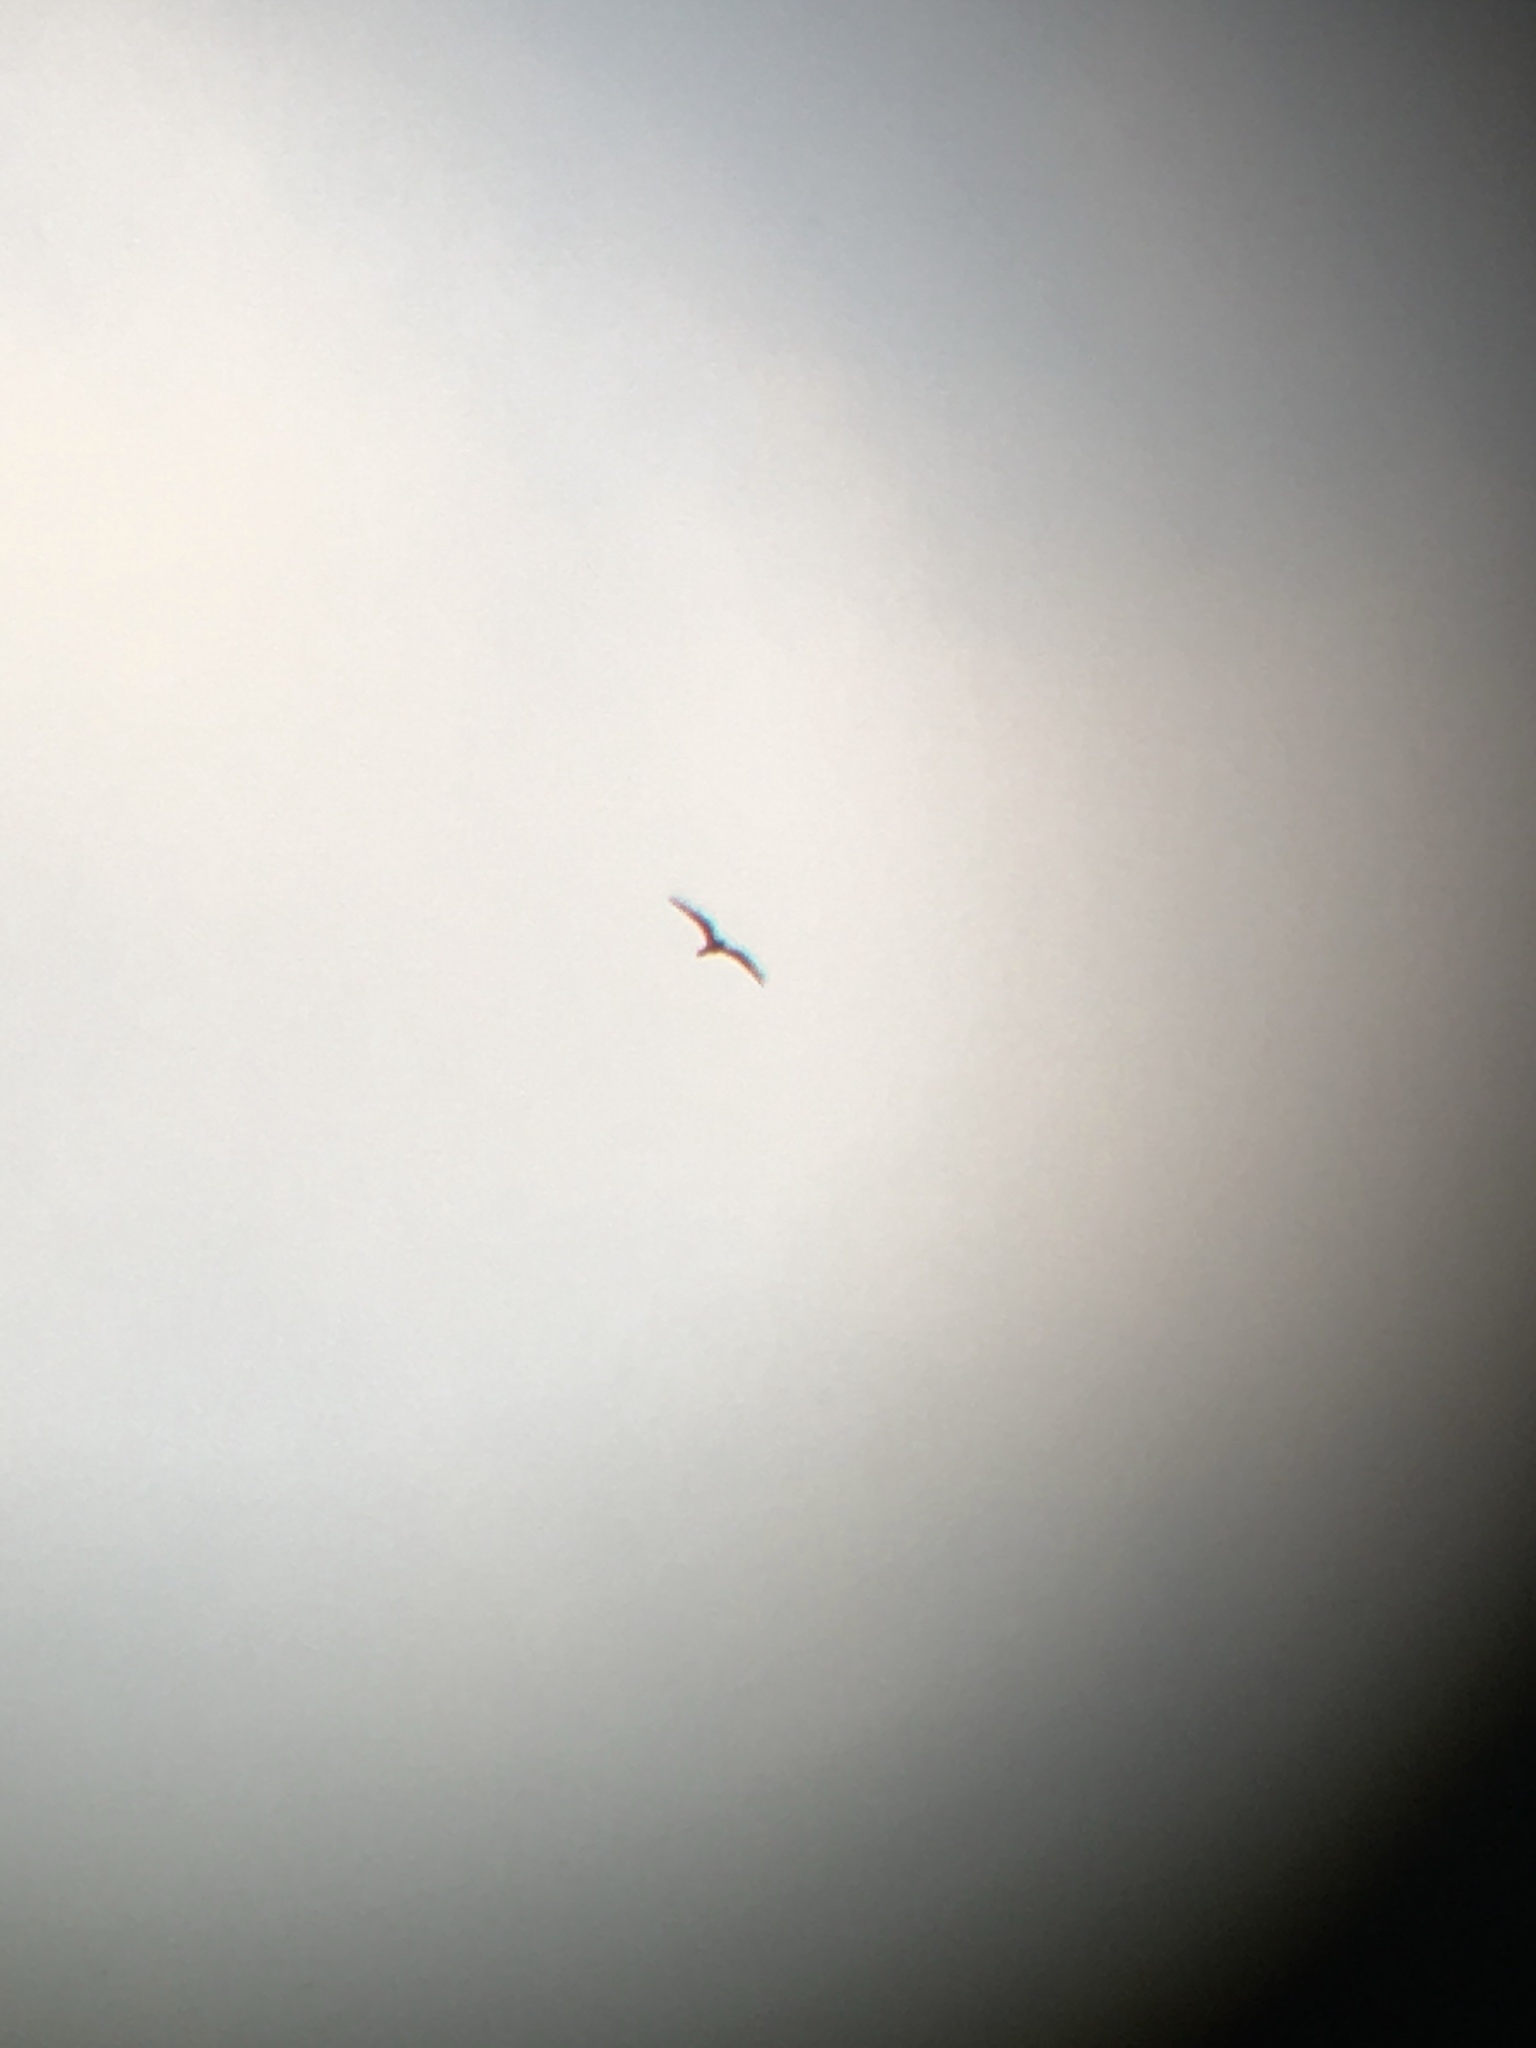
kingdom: Animalia
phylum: Chordata
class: Aves
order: Caprimulgiformes
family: Caprimulgidae
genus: Chordeiles
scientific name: Chordeiles minor
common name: Common nighthawk
